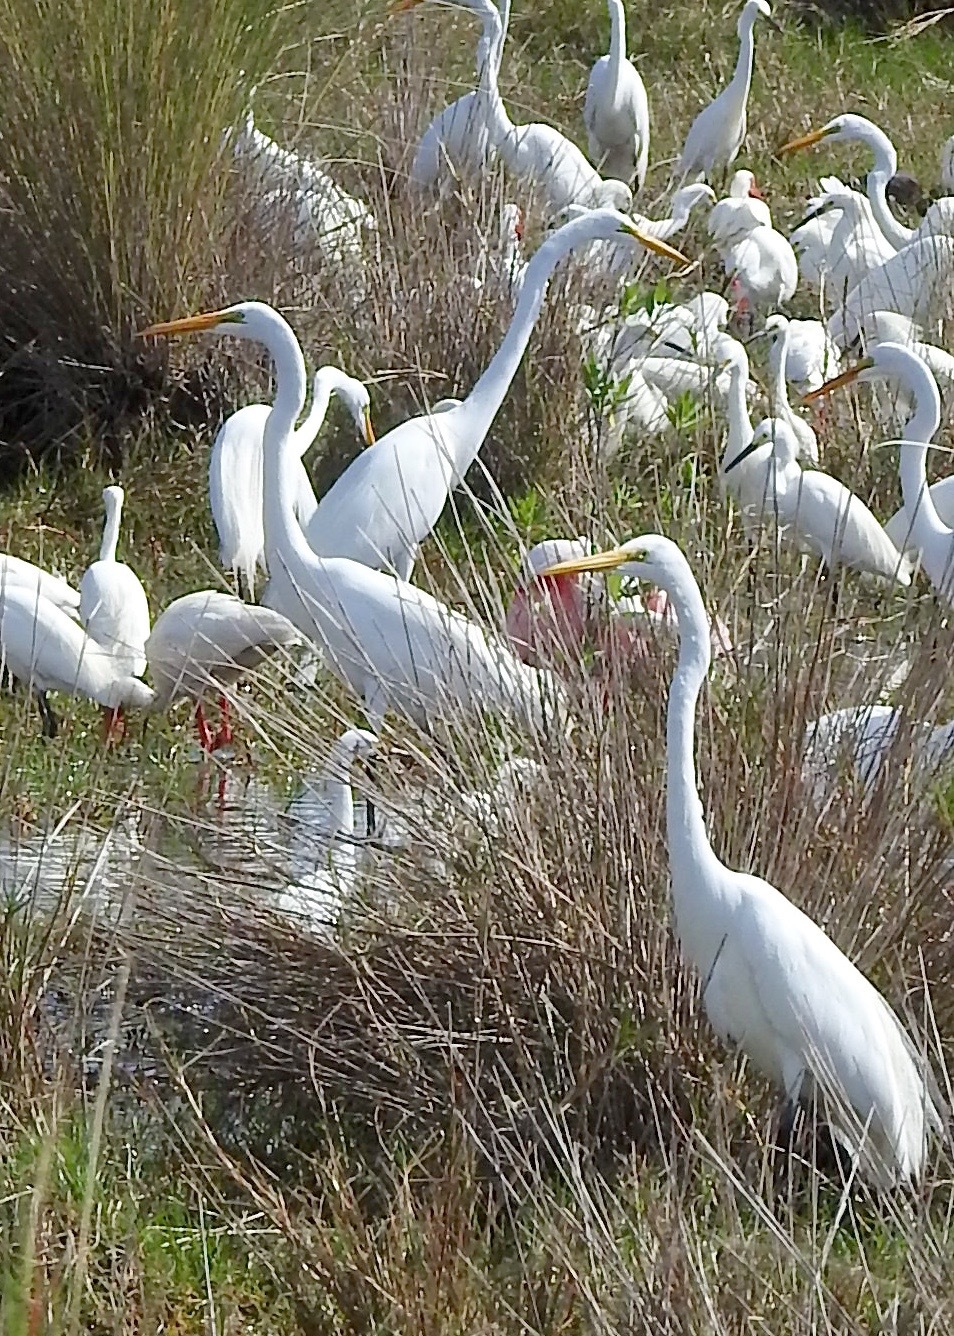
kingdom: Animalia
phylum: Chordata
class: Aves
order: Pelecaniformes
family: Ardeidae
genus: Ardea
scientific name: Ardea alba
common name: Great egret
